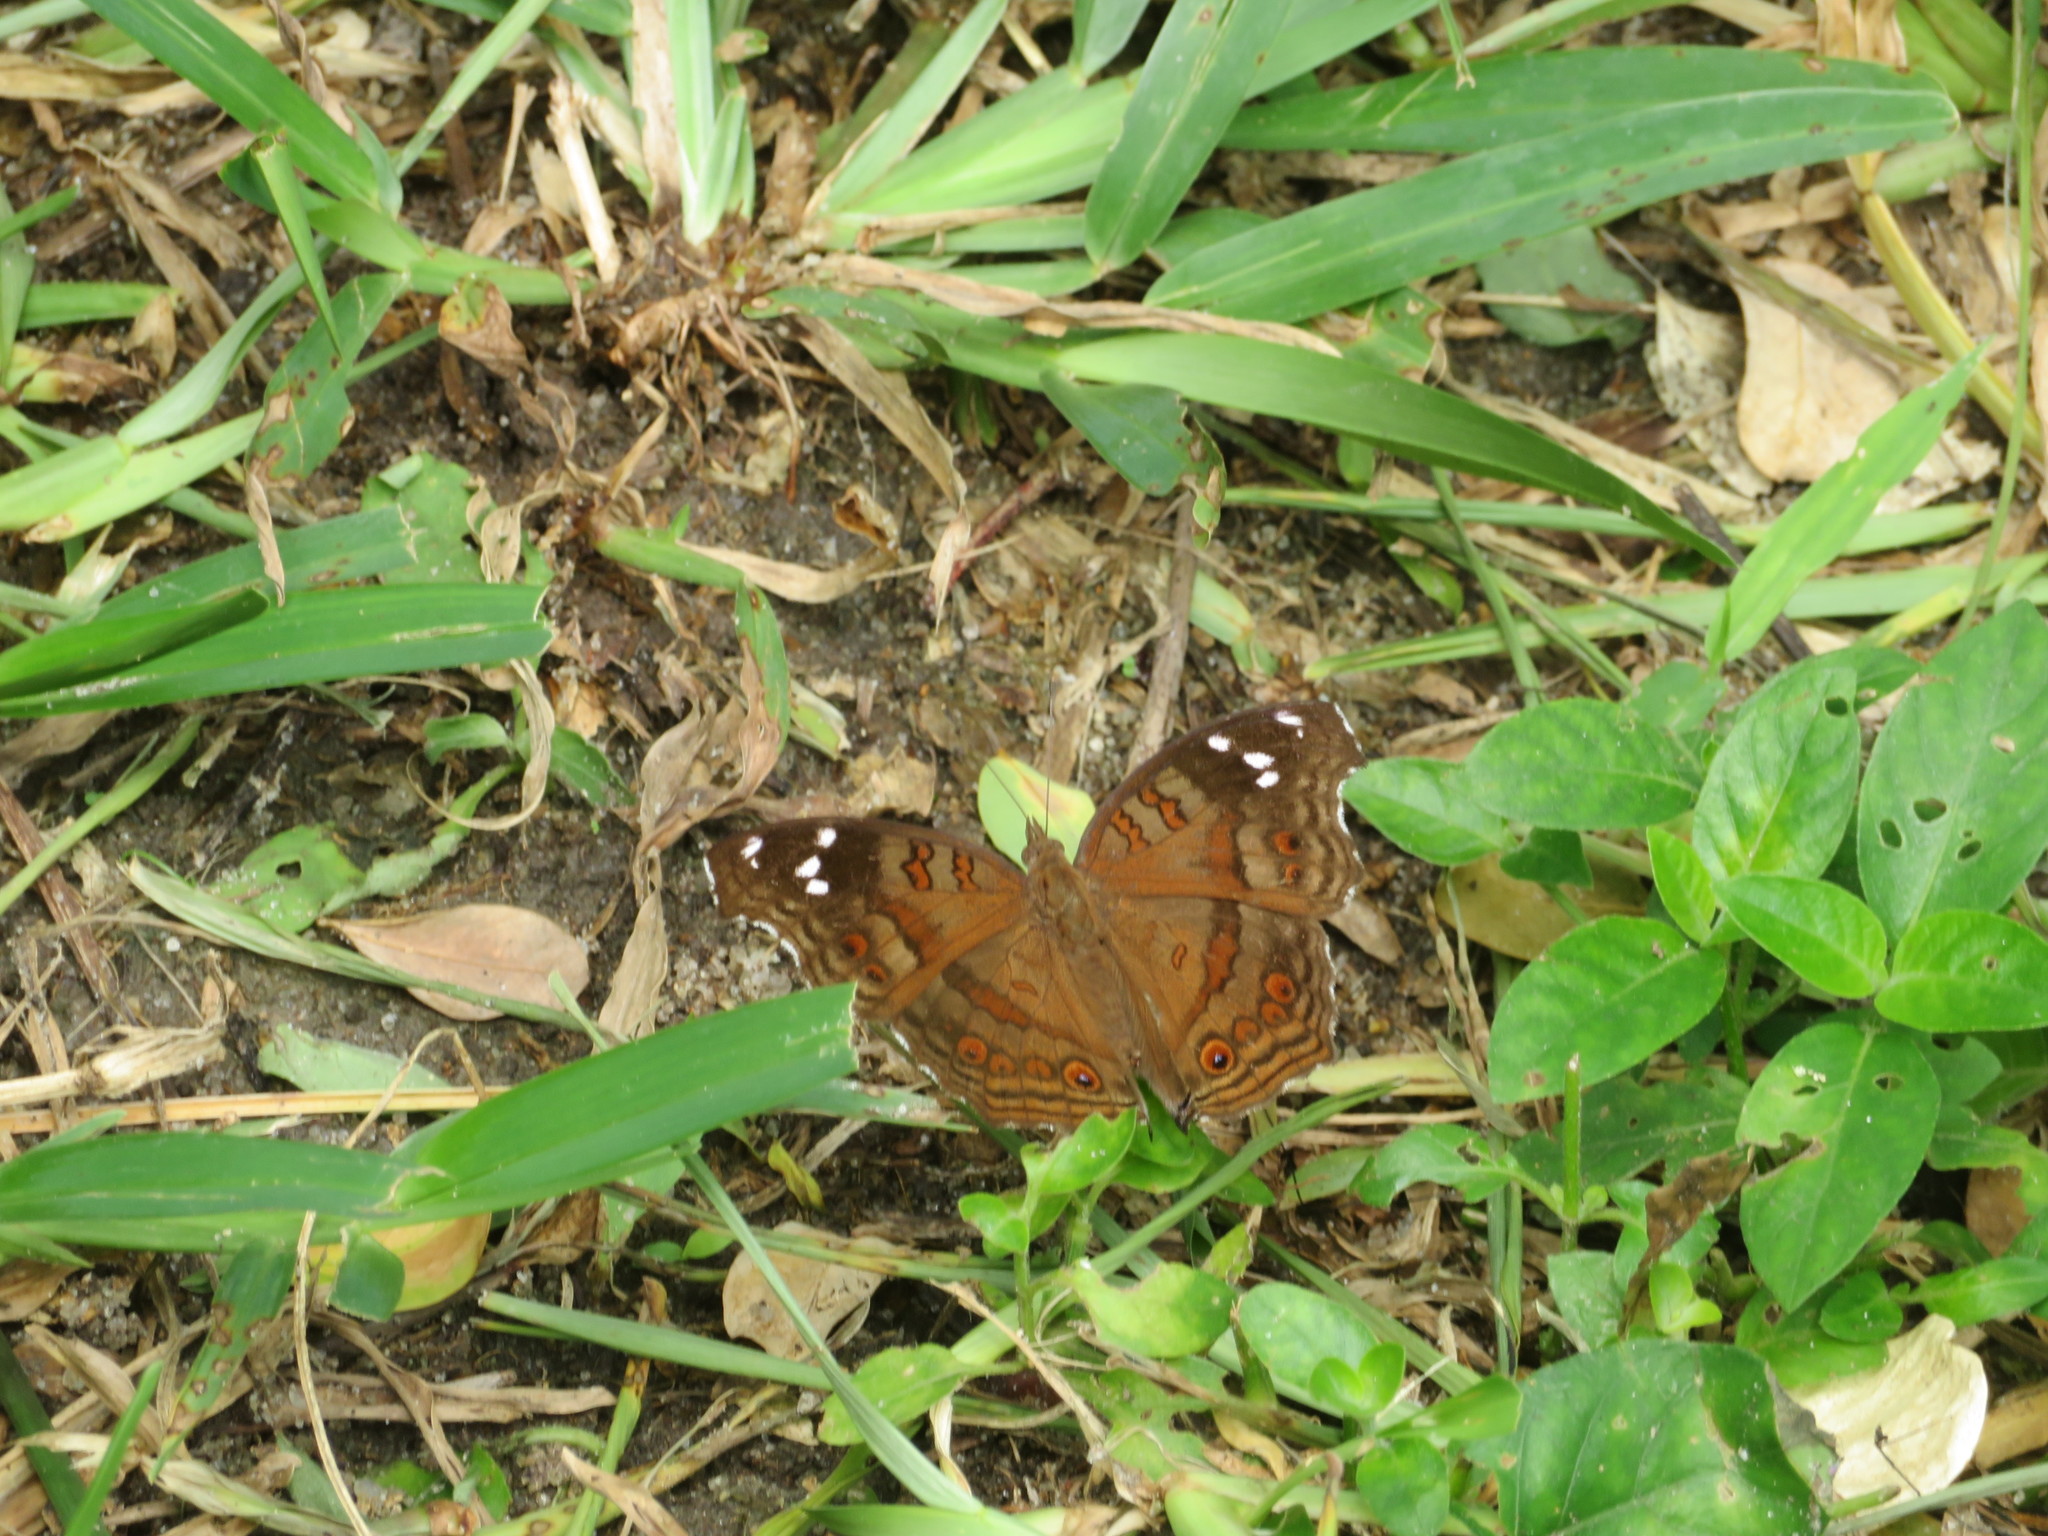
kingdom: Animalia
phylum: Arthropoda
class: Insecta
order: Lepidoptera
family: Nymphalidae
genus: Junonia
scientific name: Junonia natalica
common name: Brown pansy
